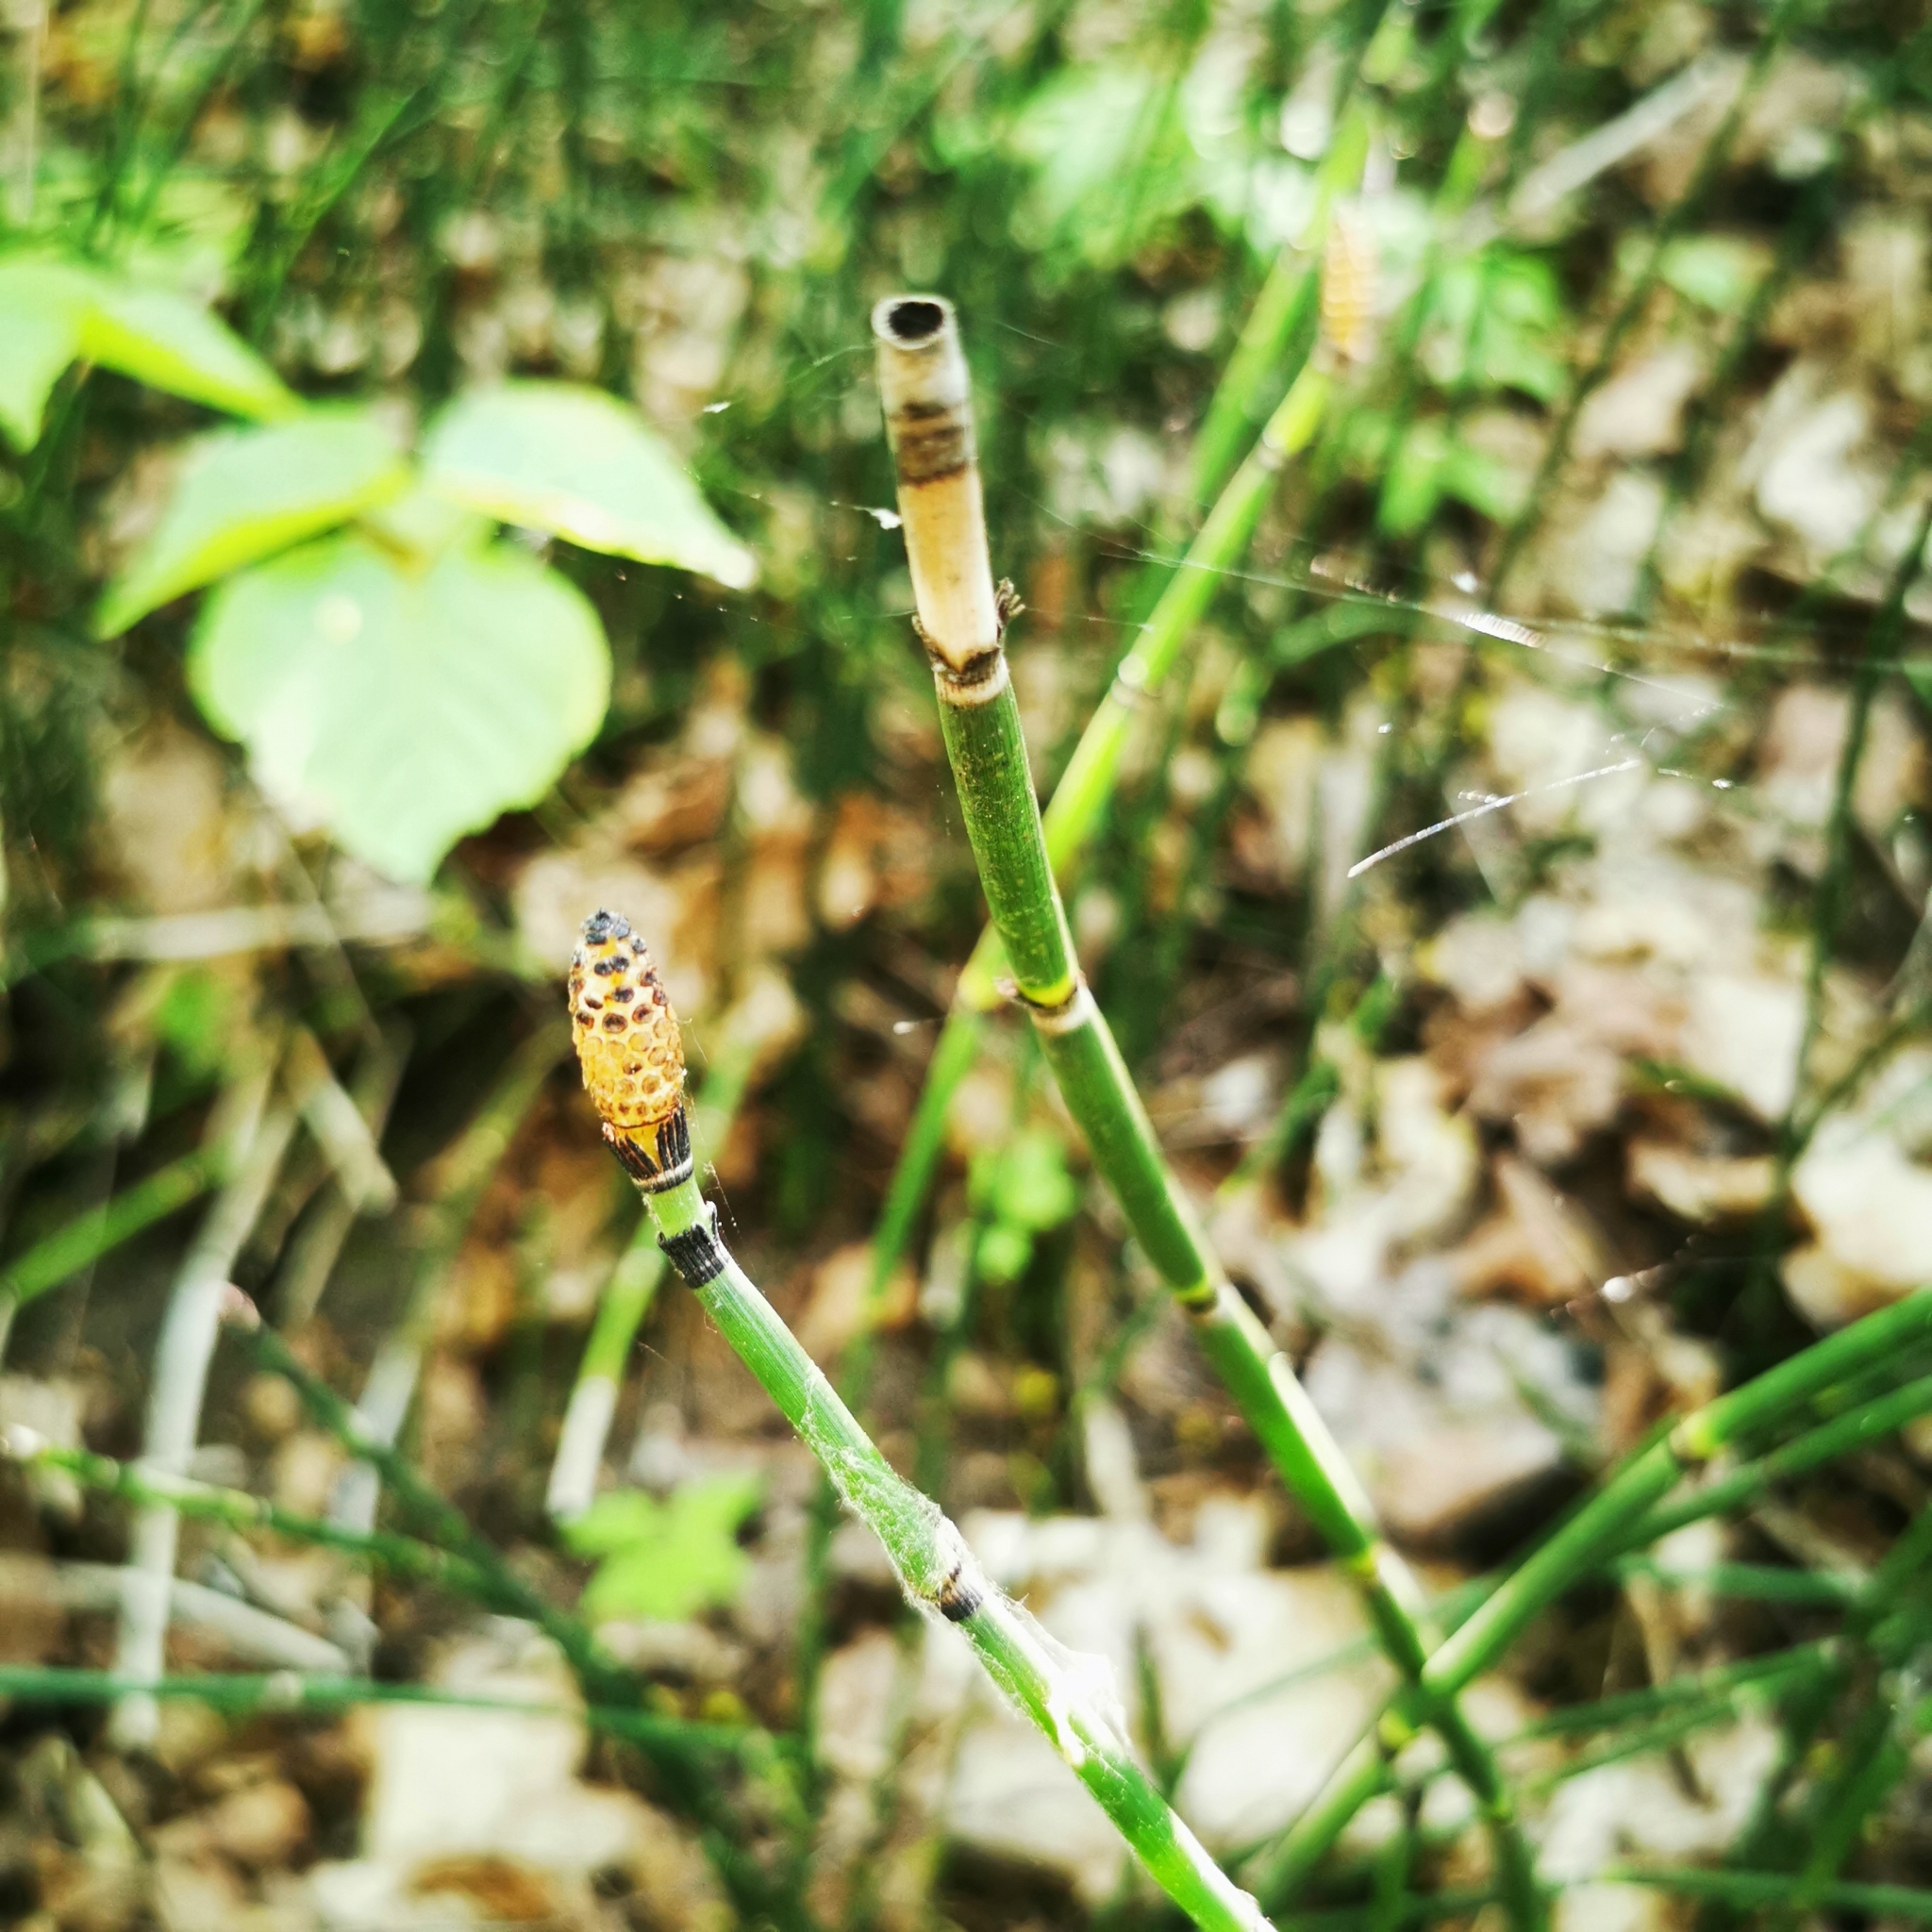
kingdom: Plantae
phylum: Tracheophyta
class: Polypodiopsida
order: Equisetales
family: Equisetaceae
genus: Equisetum
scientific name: Equisetum hyemale
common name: Rough horsetail
